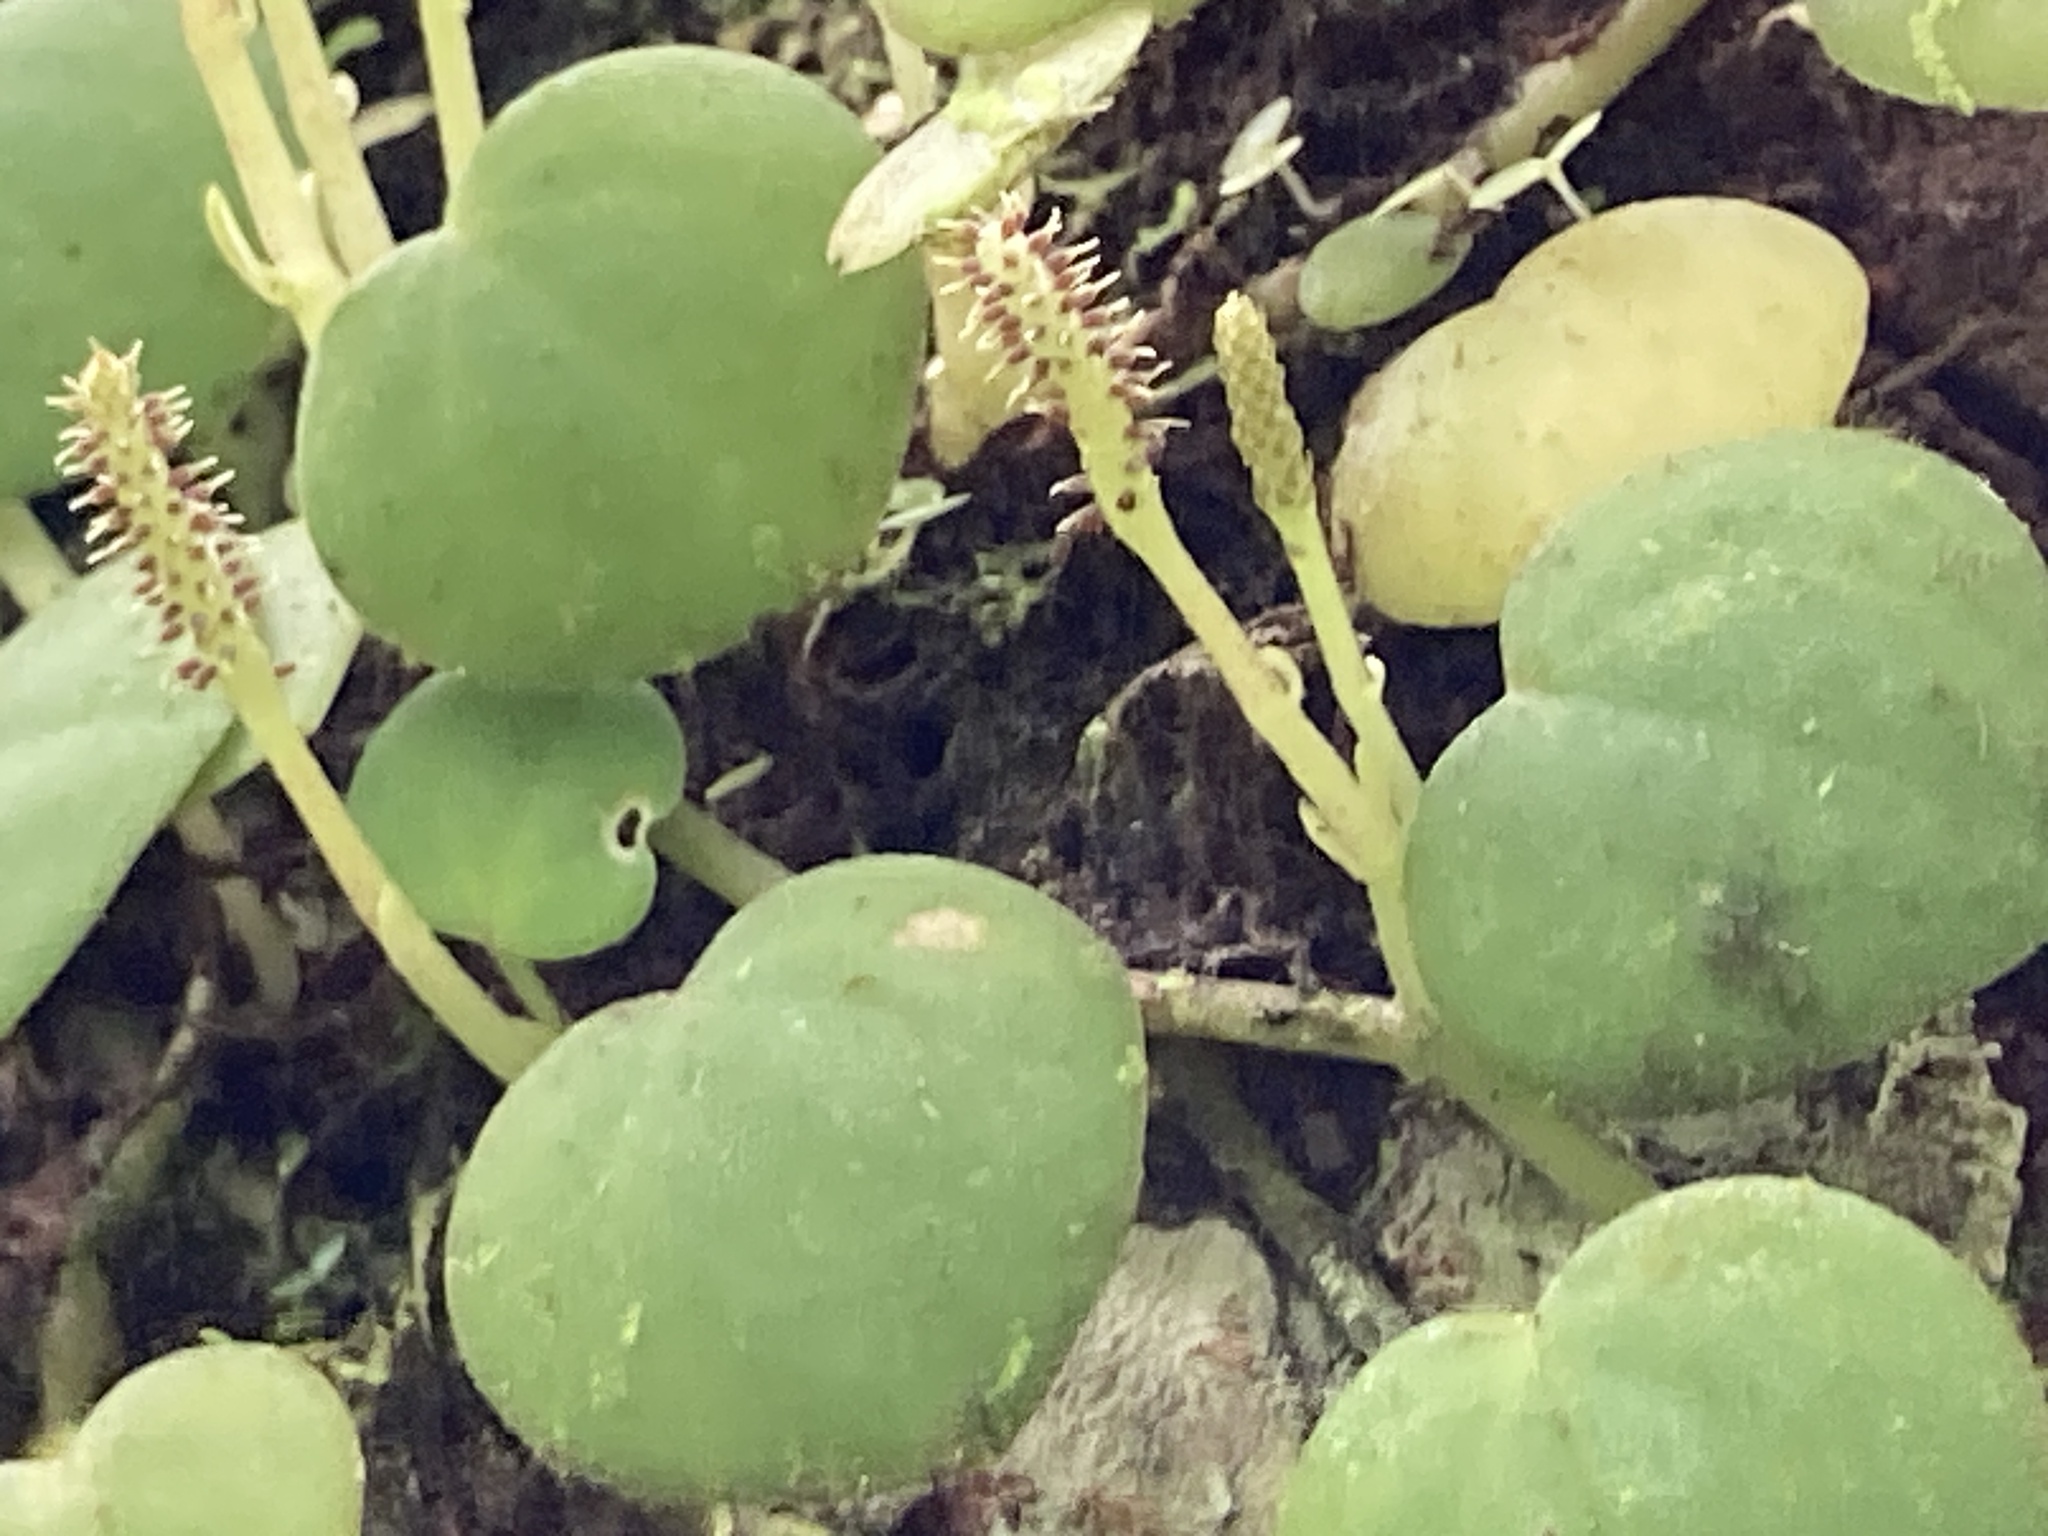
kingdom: Plantae
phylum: Tracheophyta
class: Magnoliopsida
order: Piperales
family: Piperaceae
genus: Peperomia
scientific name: Peperomia serpens
